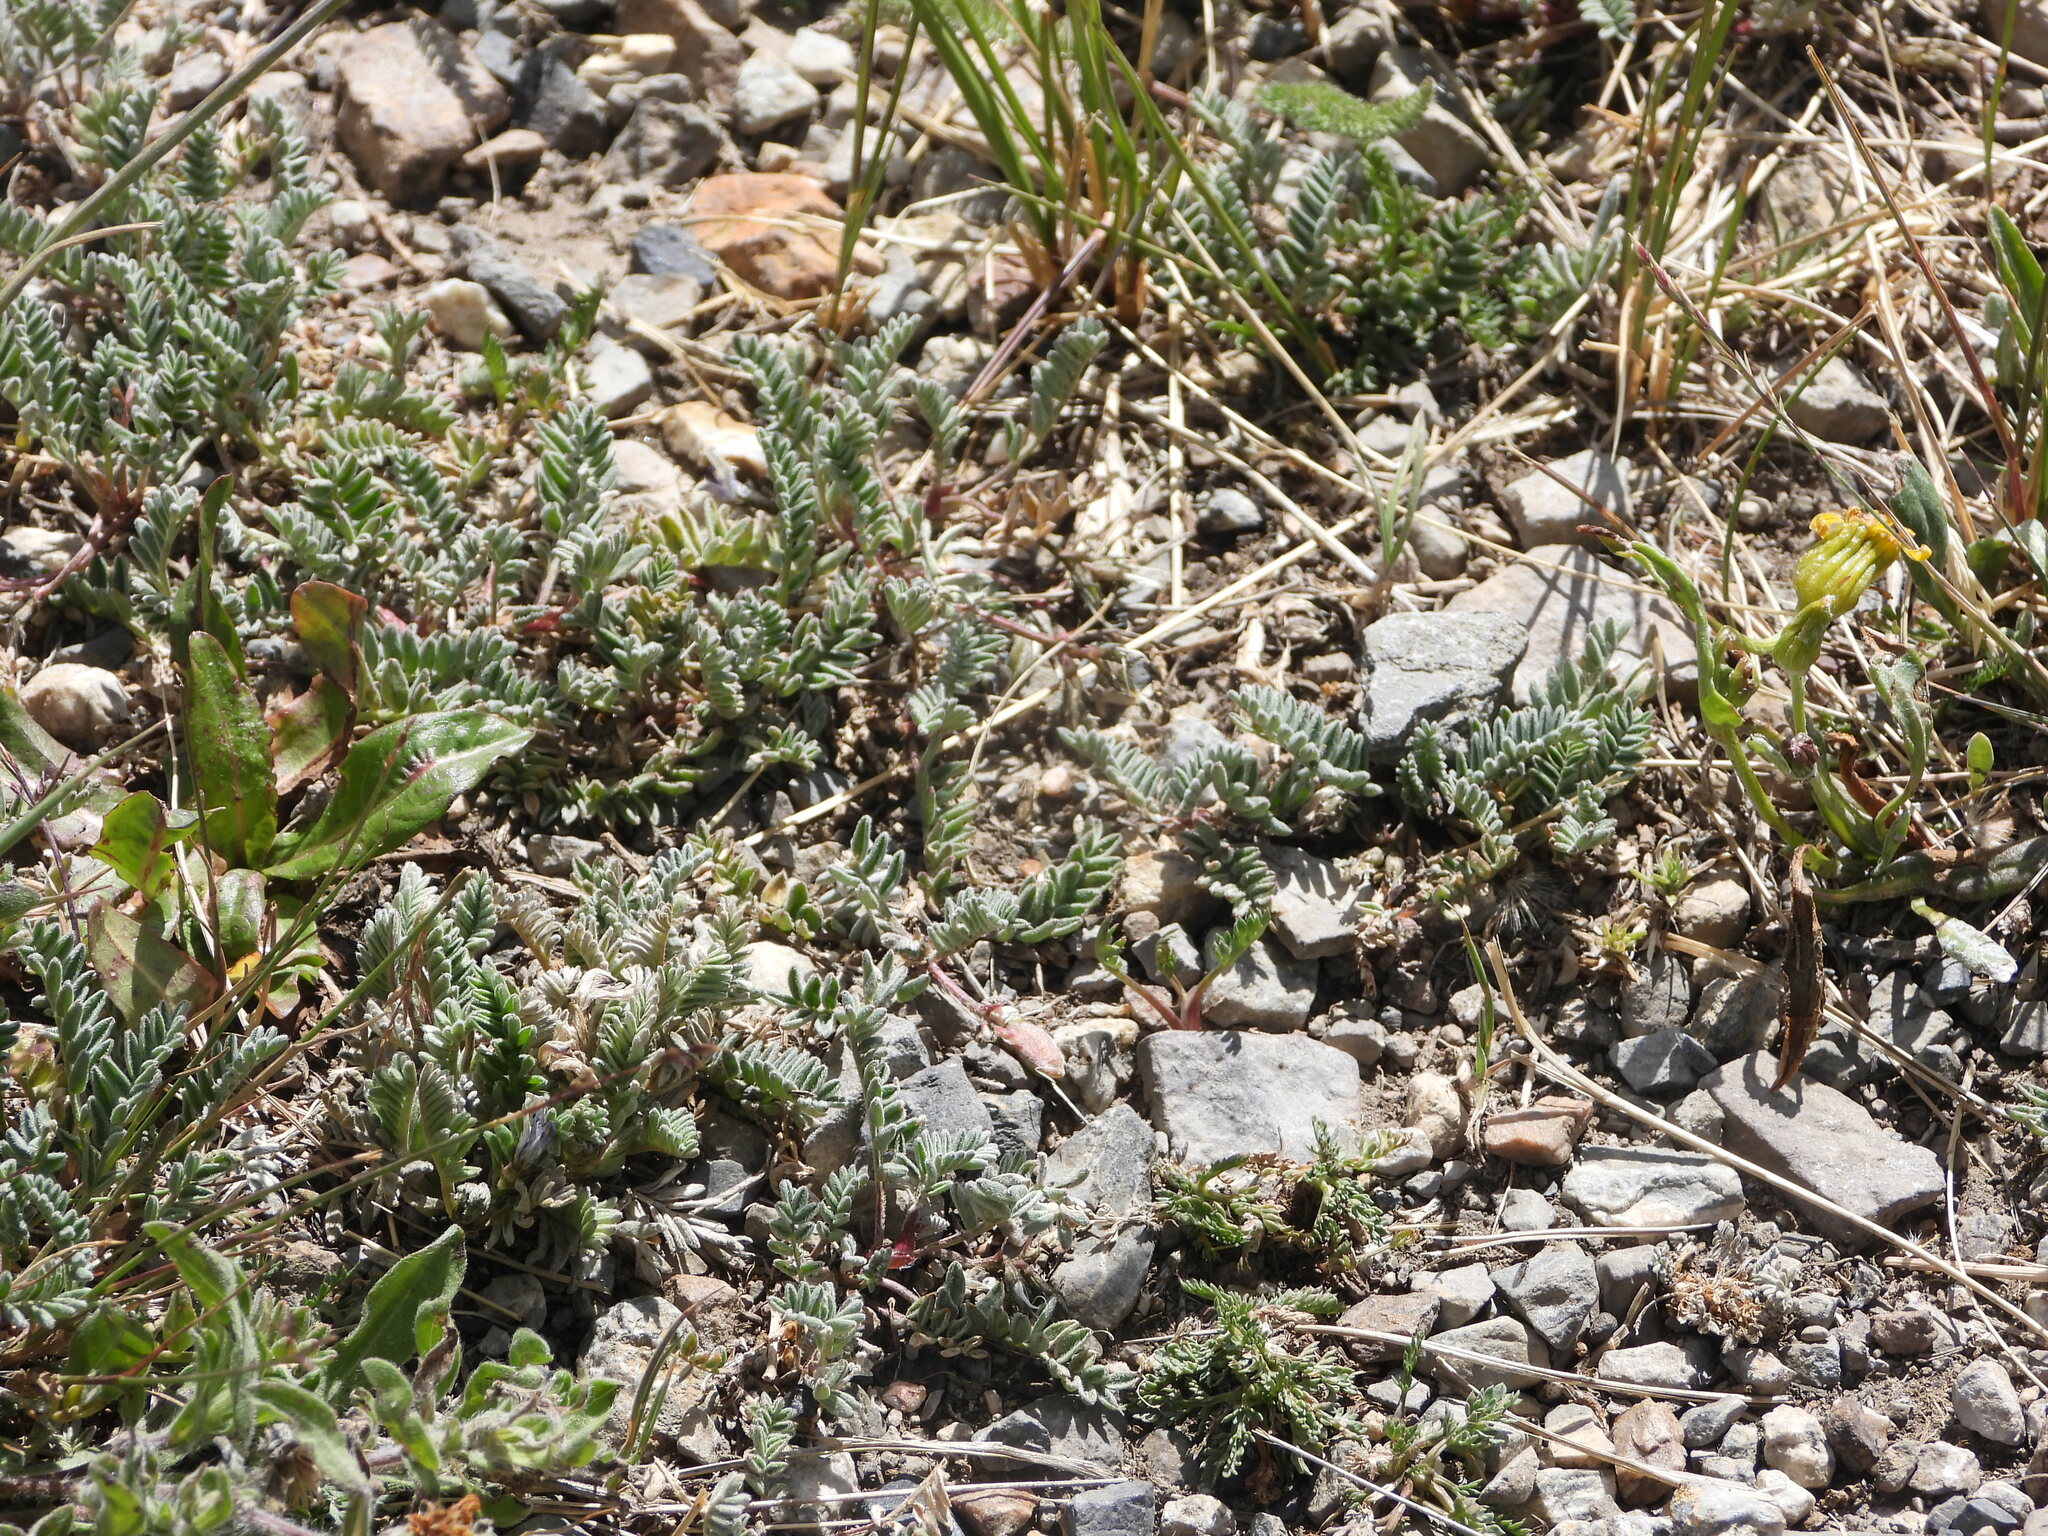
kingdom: Plantae
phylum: Tracheophyta
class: Magnoliopsida
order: Fabales
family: Fabaceae
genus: Astragalus
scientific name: Astragalus molybdenus
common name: Leadville
